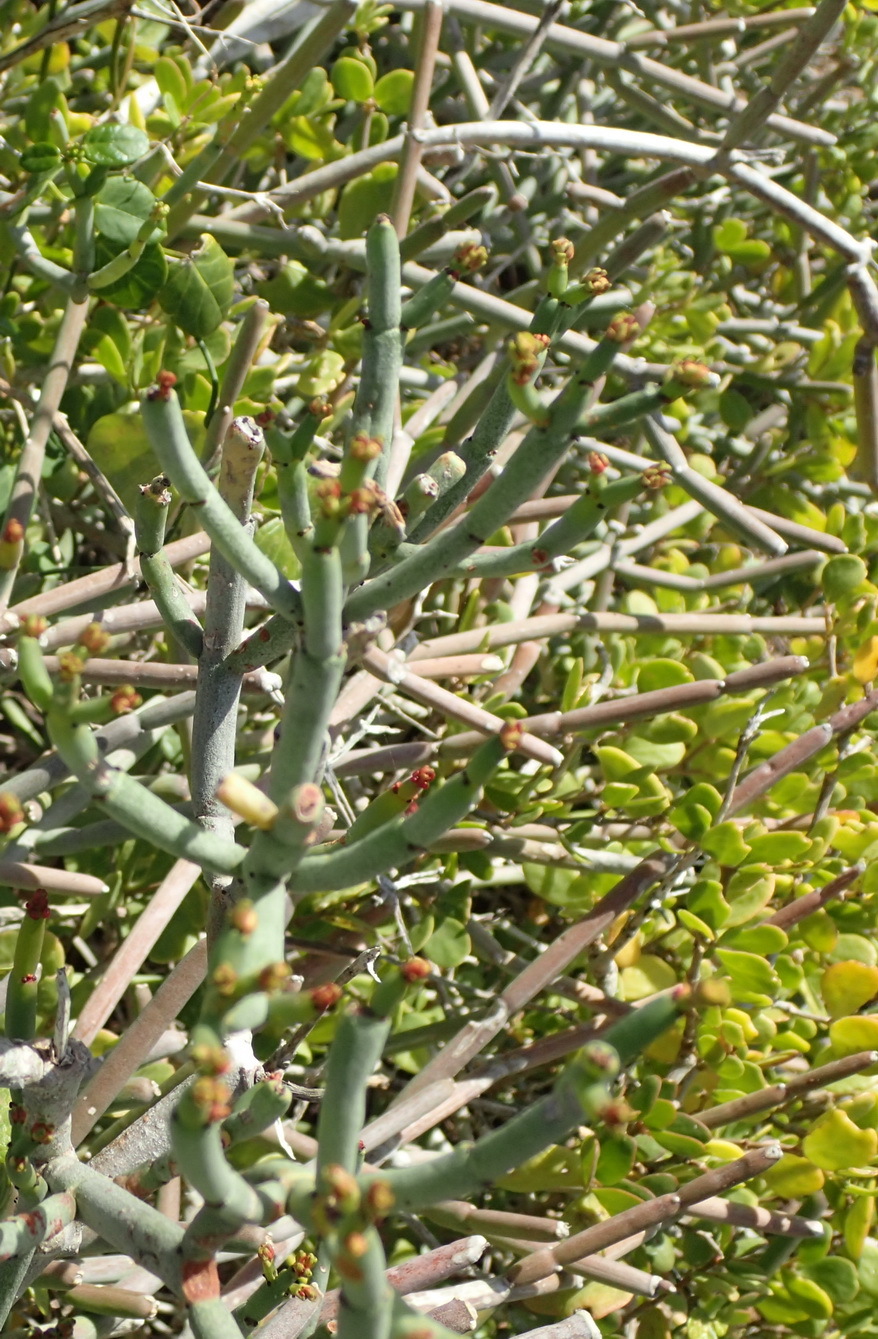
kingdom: Plantae
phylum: Tracheophyta
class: Magnoliopsida
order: Malpighiales
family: Euphorbiaceae
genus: Euphorbia
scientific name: Euphorbia burmanni
